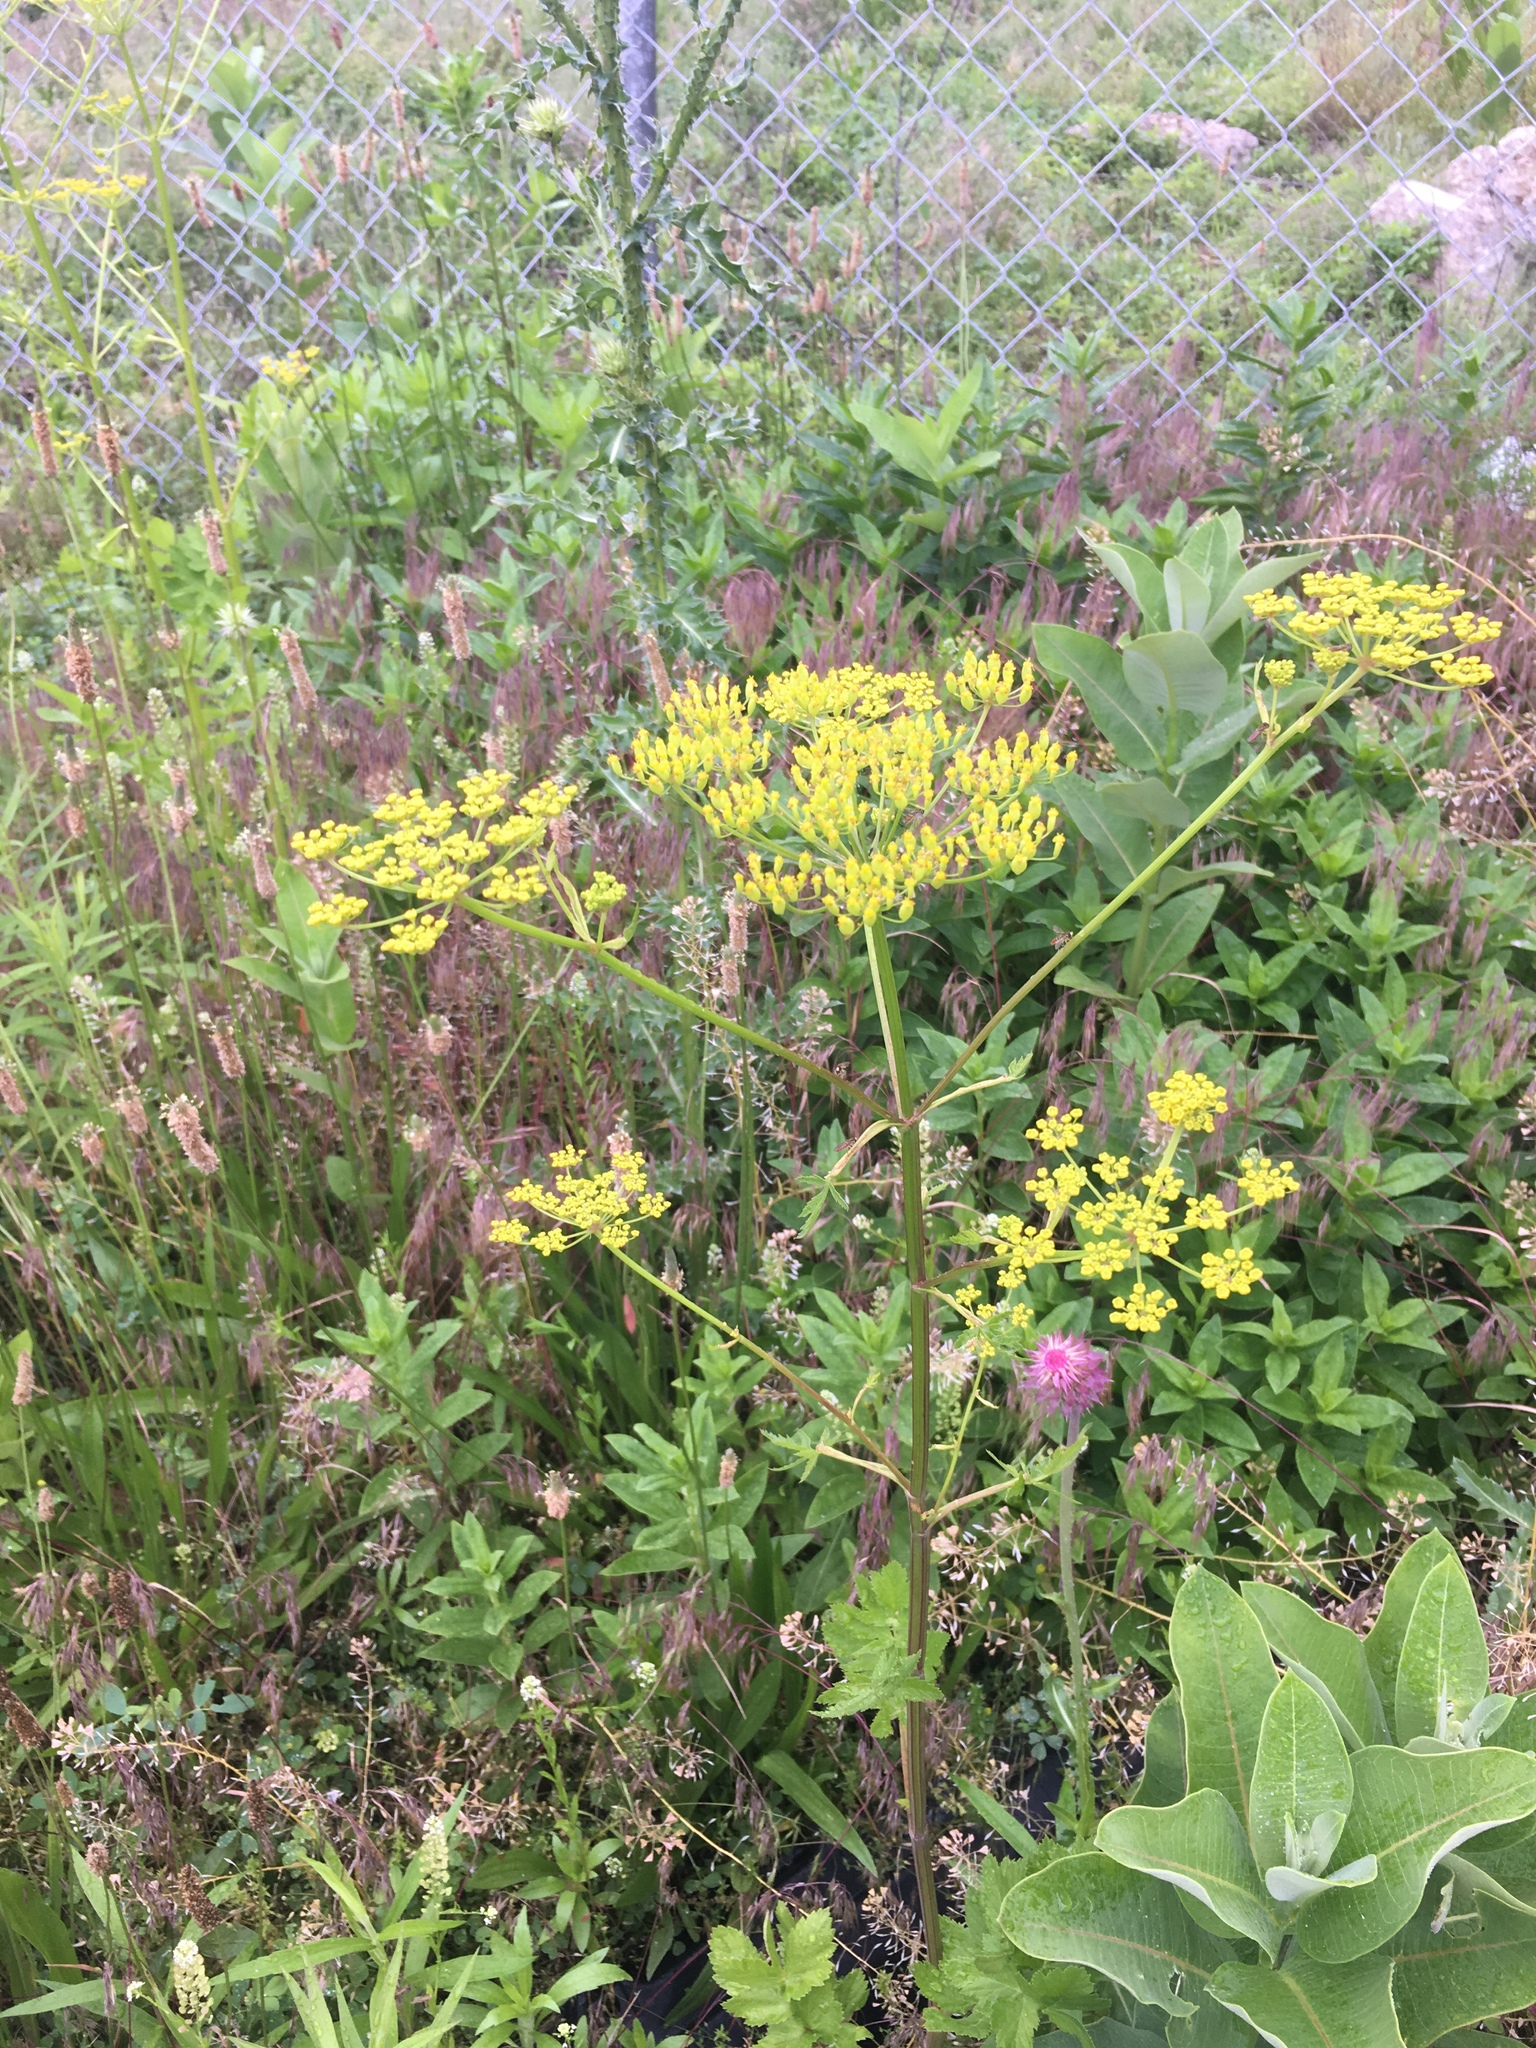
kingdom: Plantae
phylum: Tracheophyta
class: Magnoliopsida
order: Apiales
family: Apiaceae
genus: Pastinaca
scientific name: Pastinaca sativa
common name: Wild parsnip
